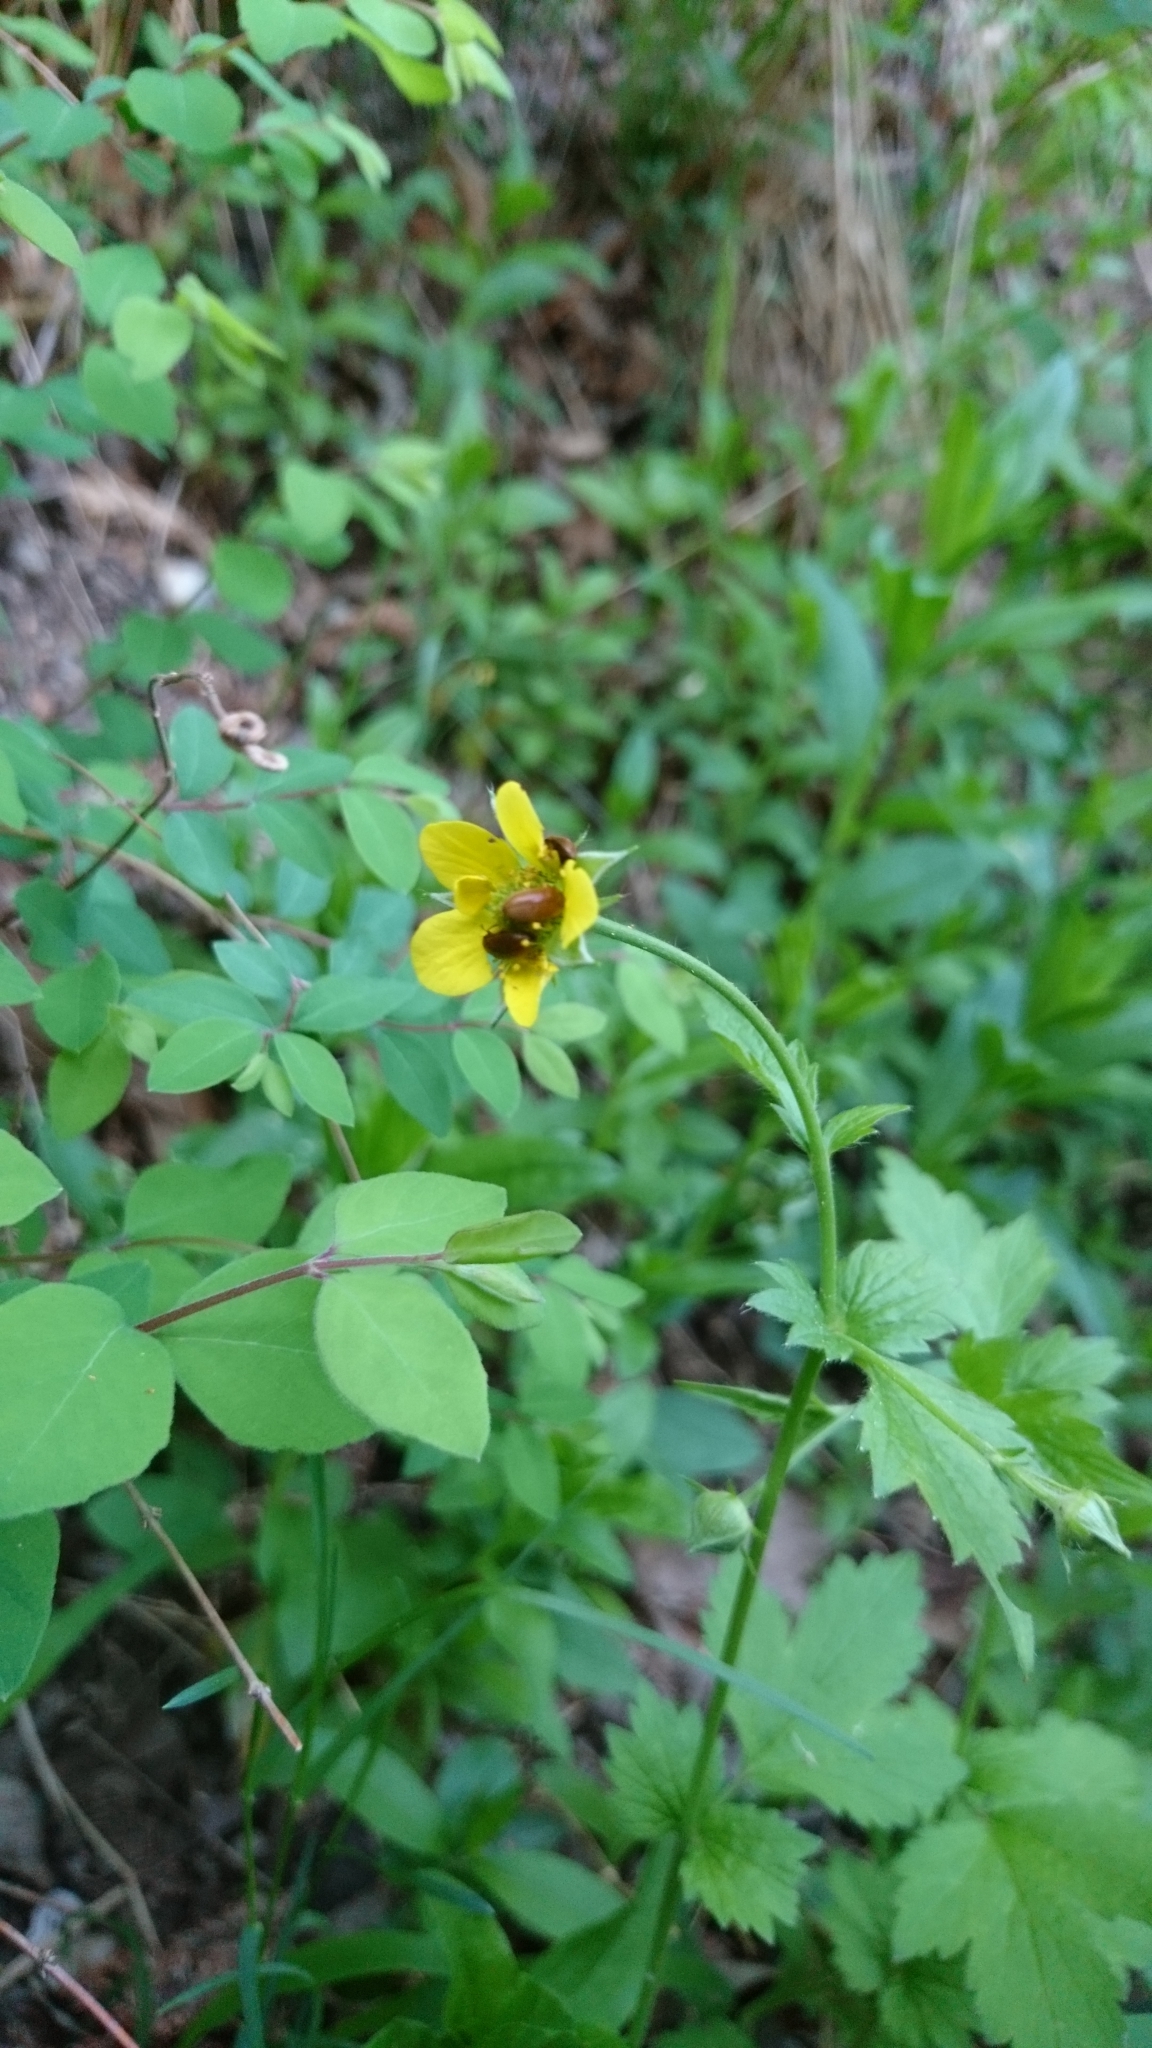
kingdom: Plantae
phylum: Tracheophyta
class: Magnoliopsida
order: Rosales
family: Rosaceae
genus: Geum
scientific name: Geum urbanum
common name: Wood avens
